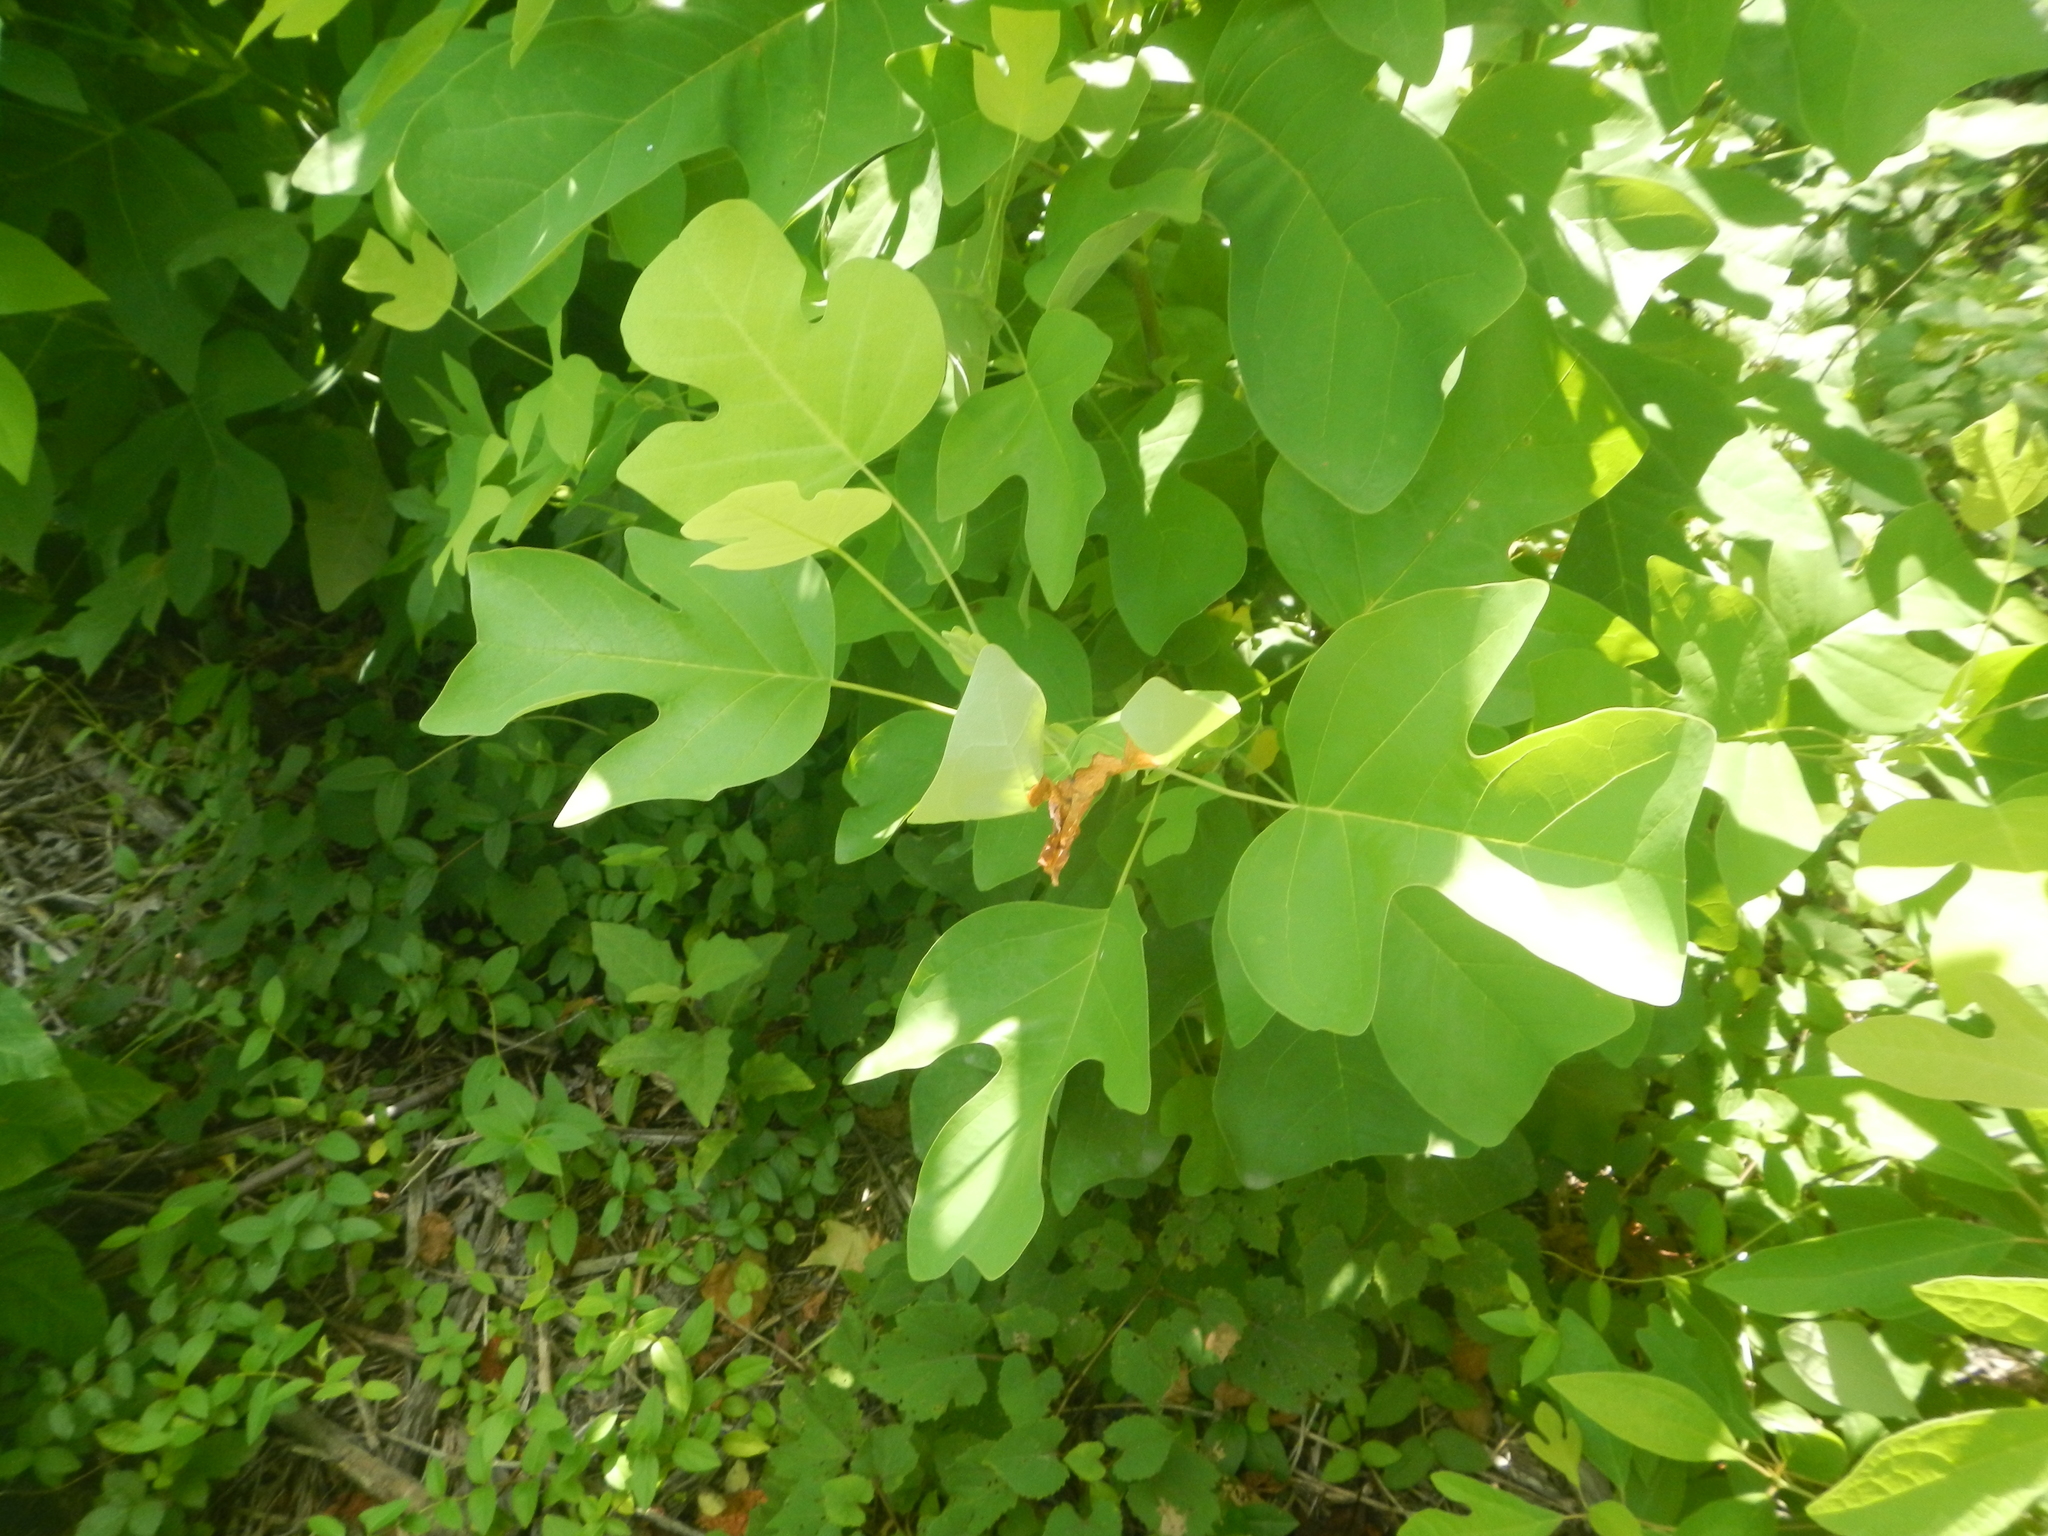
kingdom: Plantae
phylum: Tracheophyta
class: Magnoliopsida
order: Magnoliales
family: Magnoliaceae
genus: Liriodendron
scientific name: Liriodendron tulipifera
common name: Tulip tree
